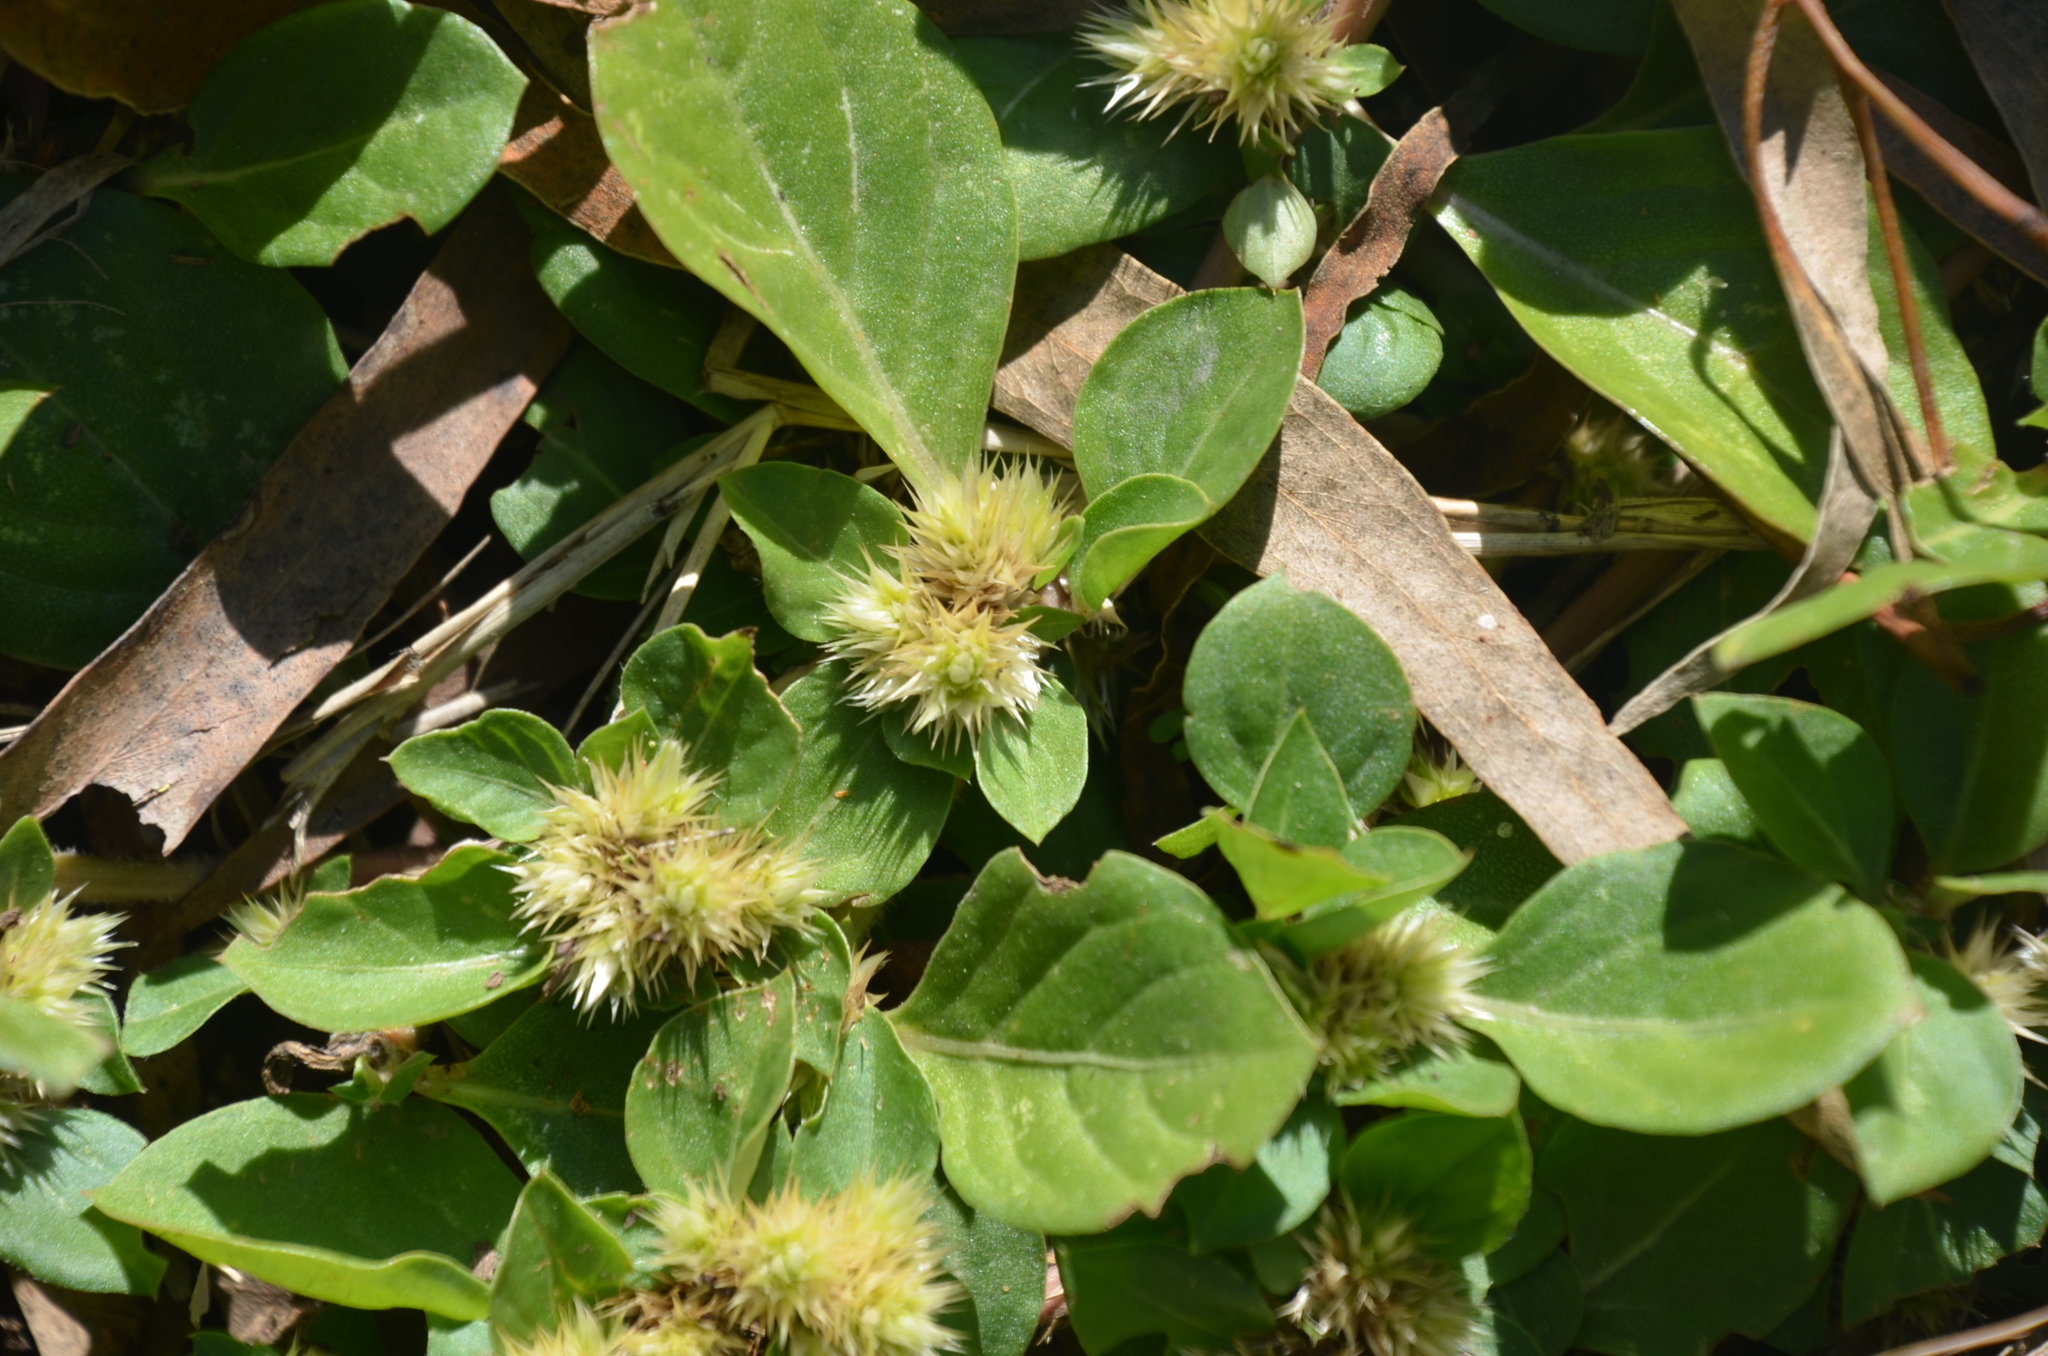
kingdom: Plantae
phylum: Tracheophyta
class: Magnoliopsida
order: Caryophyllales
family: Amaranthaceae
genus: Alternanthera
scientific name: Alternanthera pungens
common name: Khakiweed
